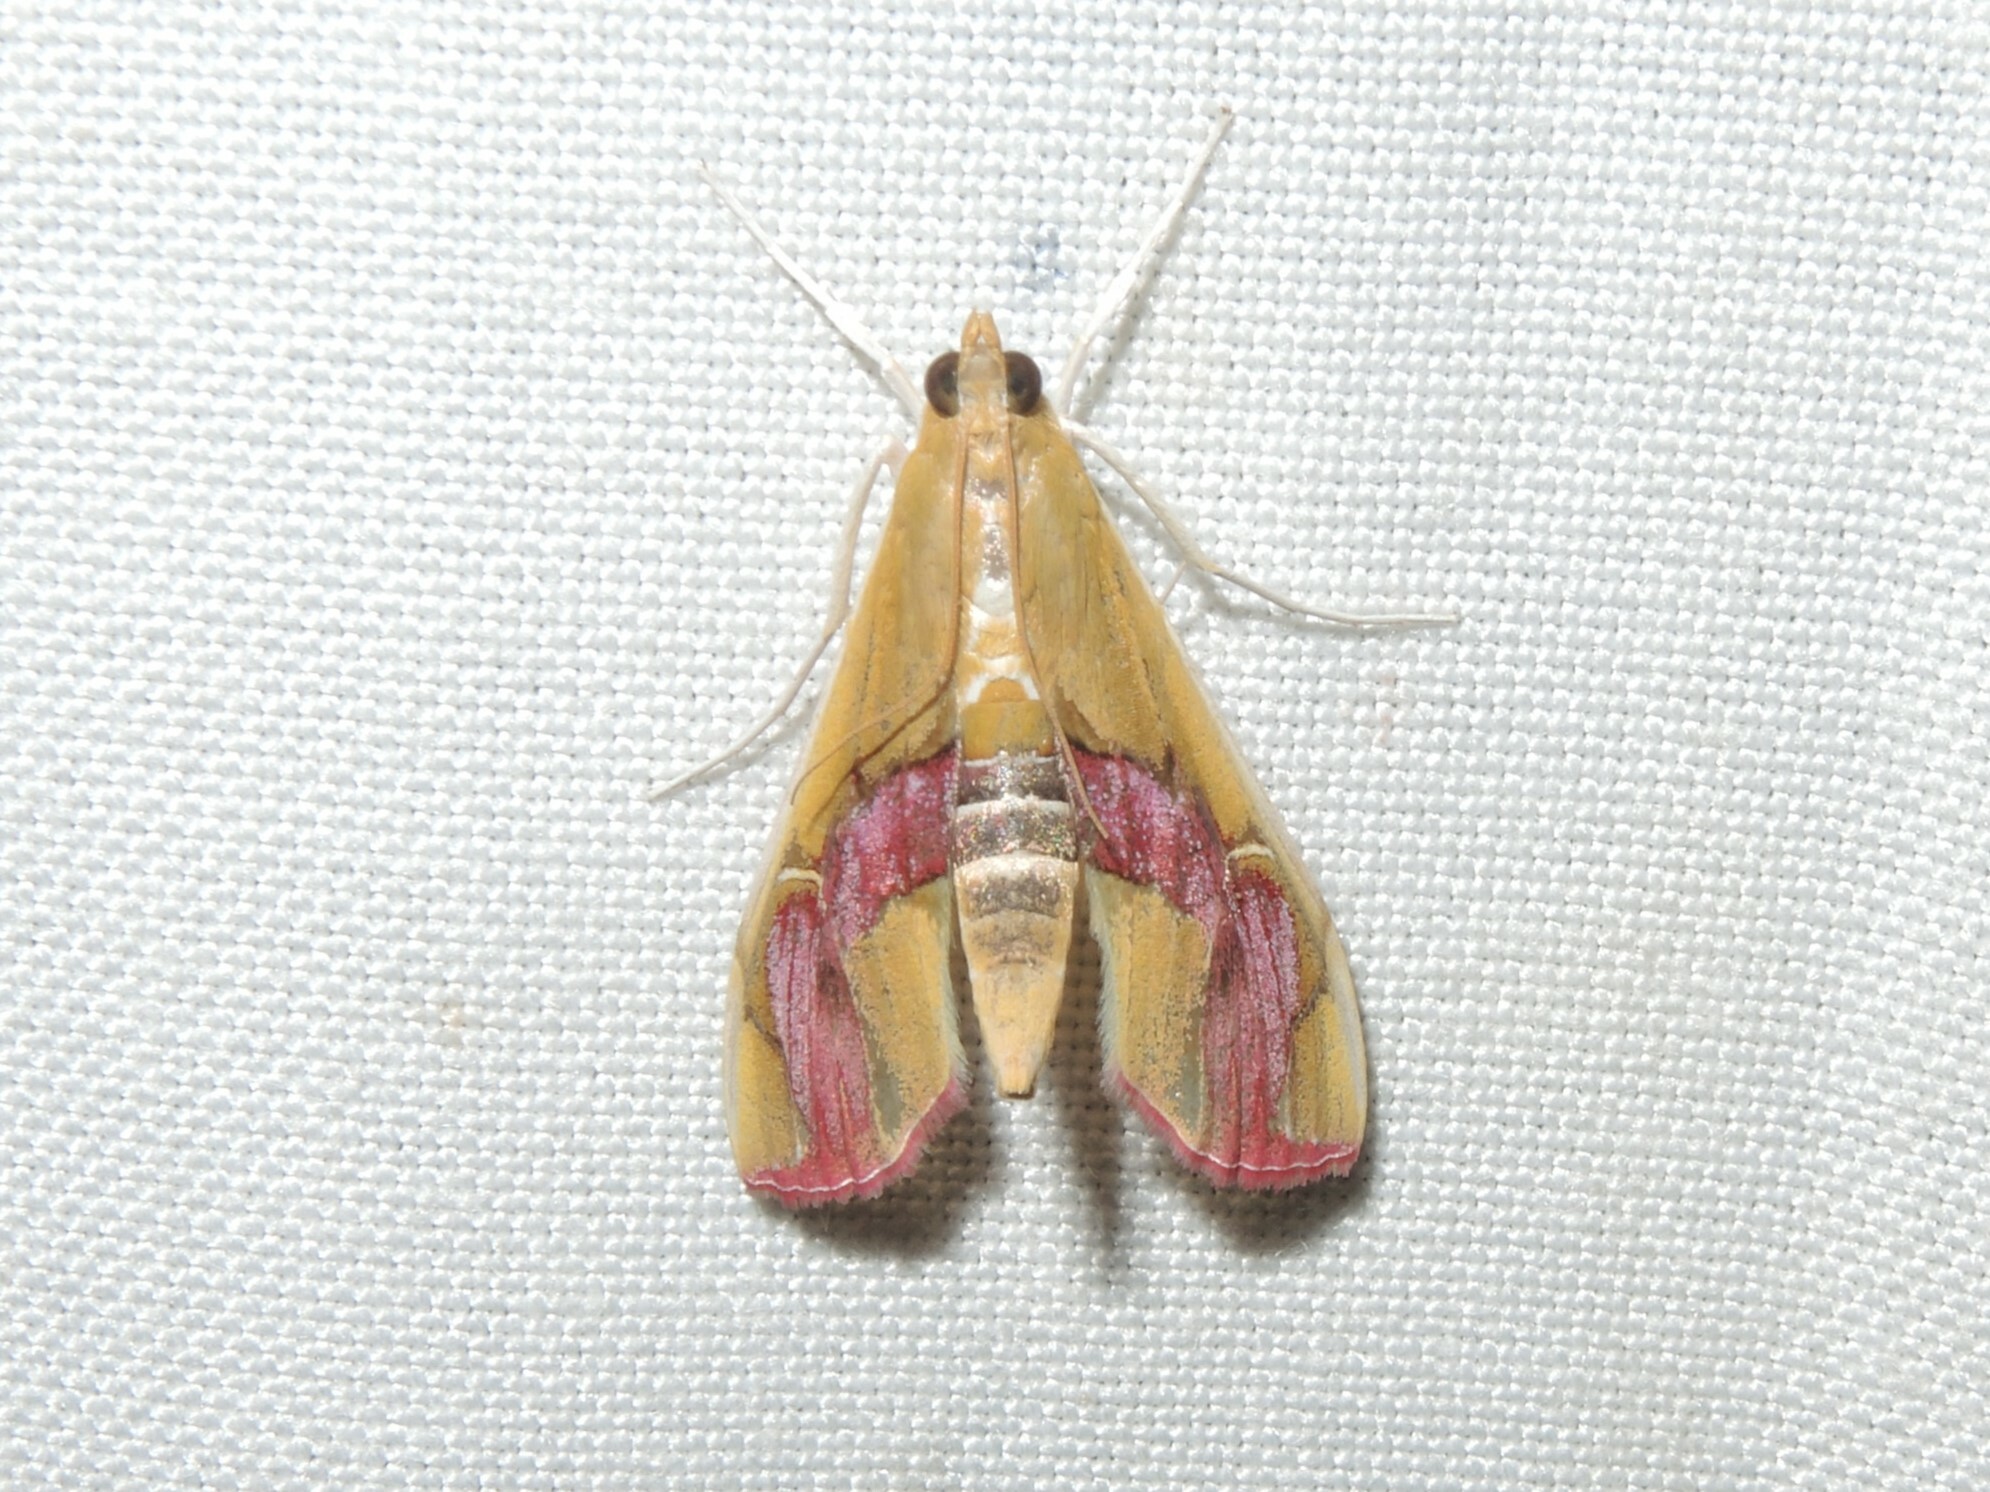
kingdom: Animalia
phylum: Arthropoda
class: Insecta
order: Lepidoptera
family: Crambidae
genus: Agathodes
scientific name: Agathodes ostentalis
